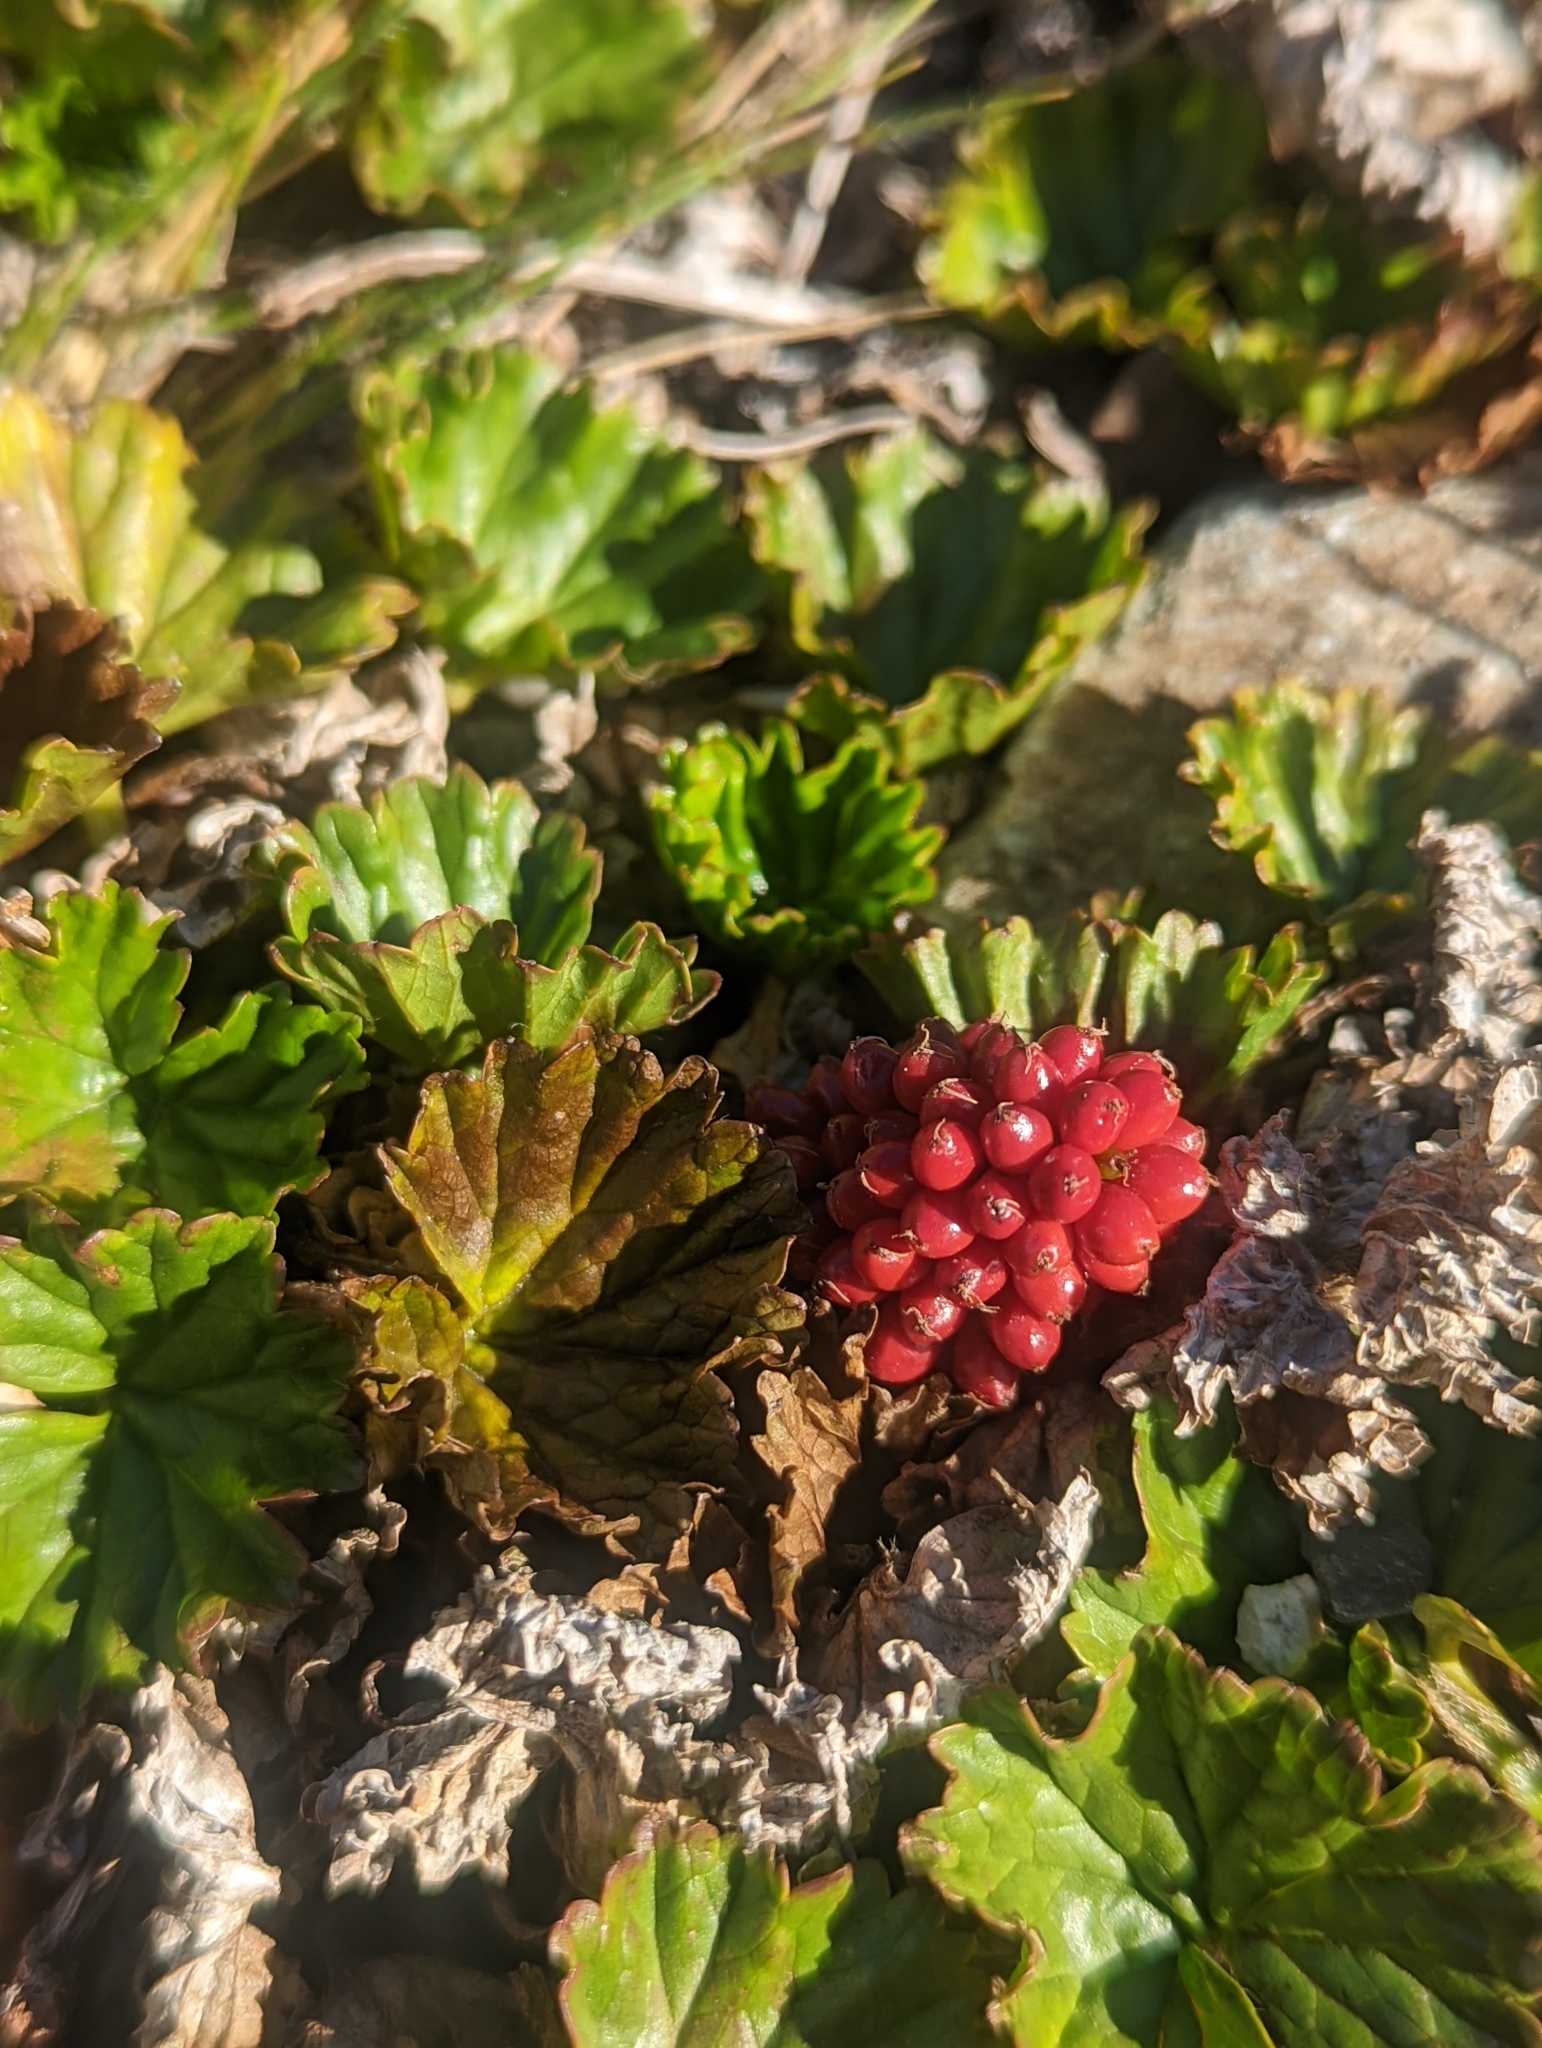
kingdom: Plantae
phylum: Tracheophyta
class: Magnoliopsida
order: Gunnerales
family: Gunneraceae
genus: Gunnera
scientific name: Gunnera magellanica
